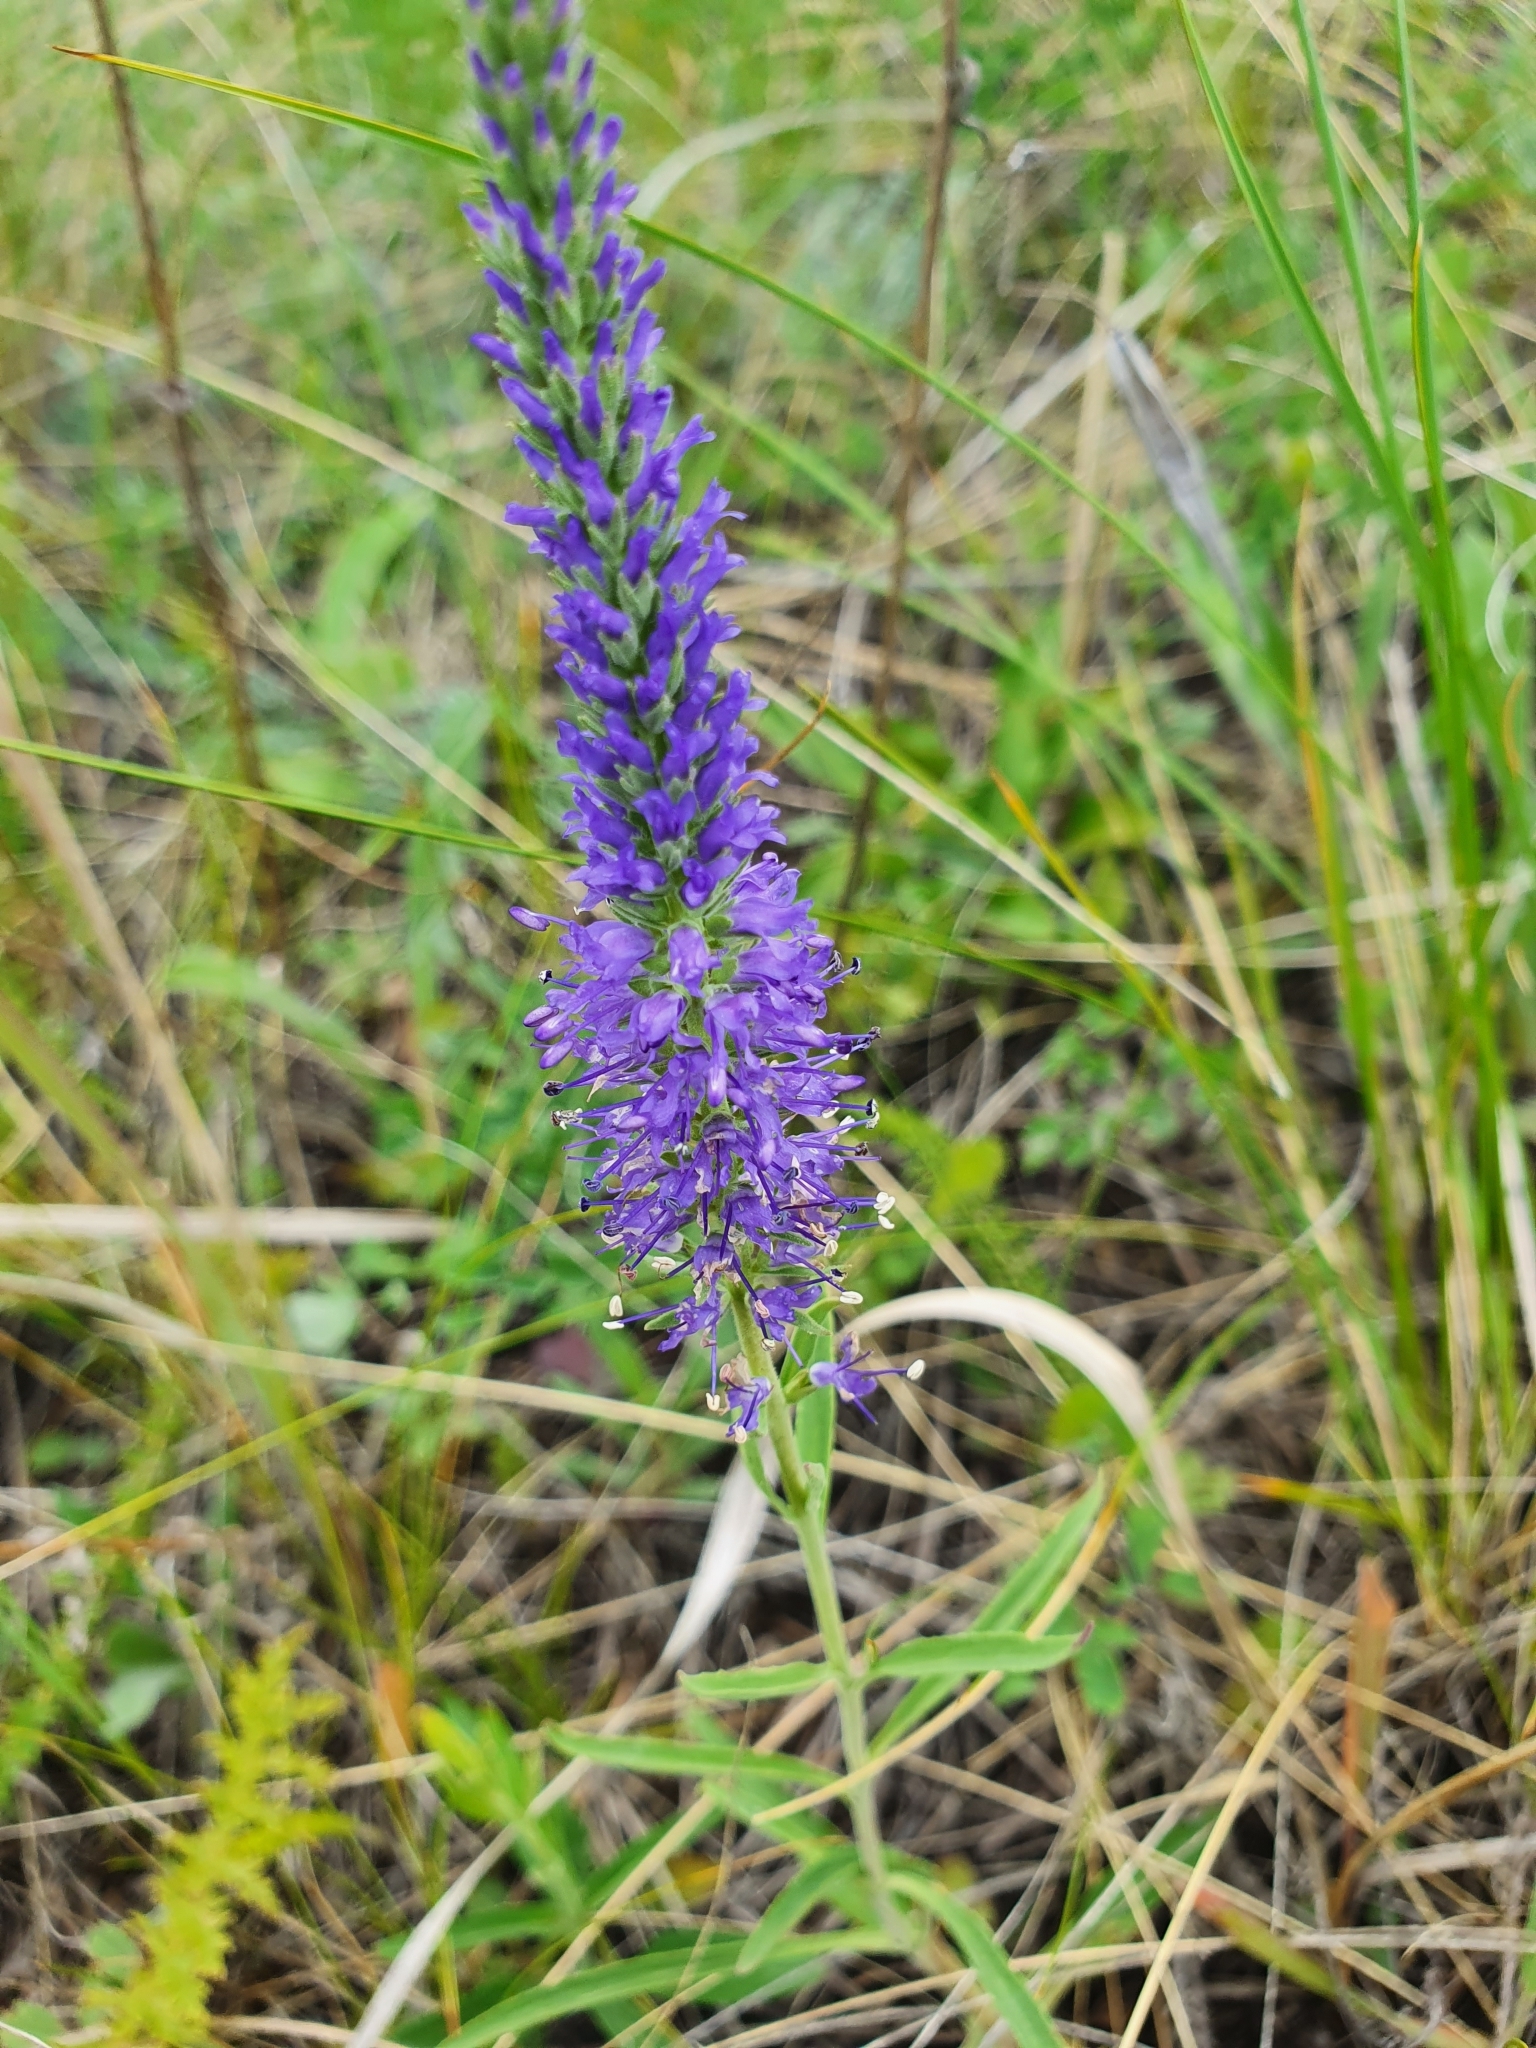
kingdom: Plantae
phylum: Tracheophyta
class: Magnoliopsida
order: Lamiales
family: Plantaginaceae
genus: Veronica
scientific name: Veronica spicata
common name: Spiked speedwell
